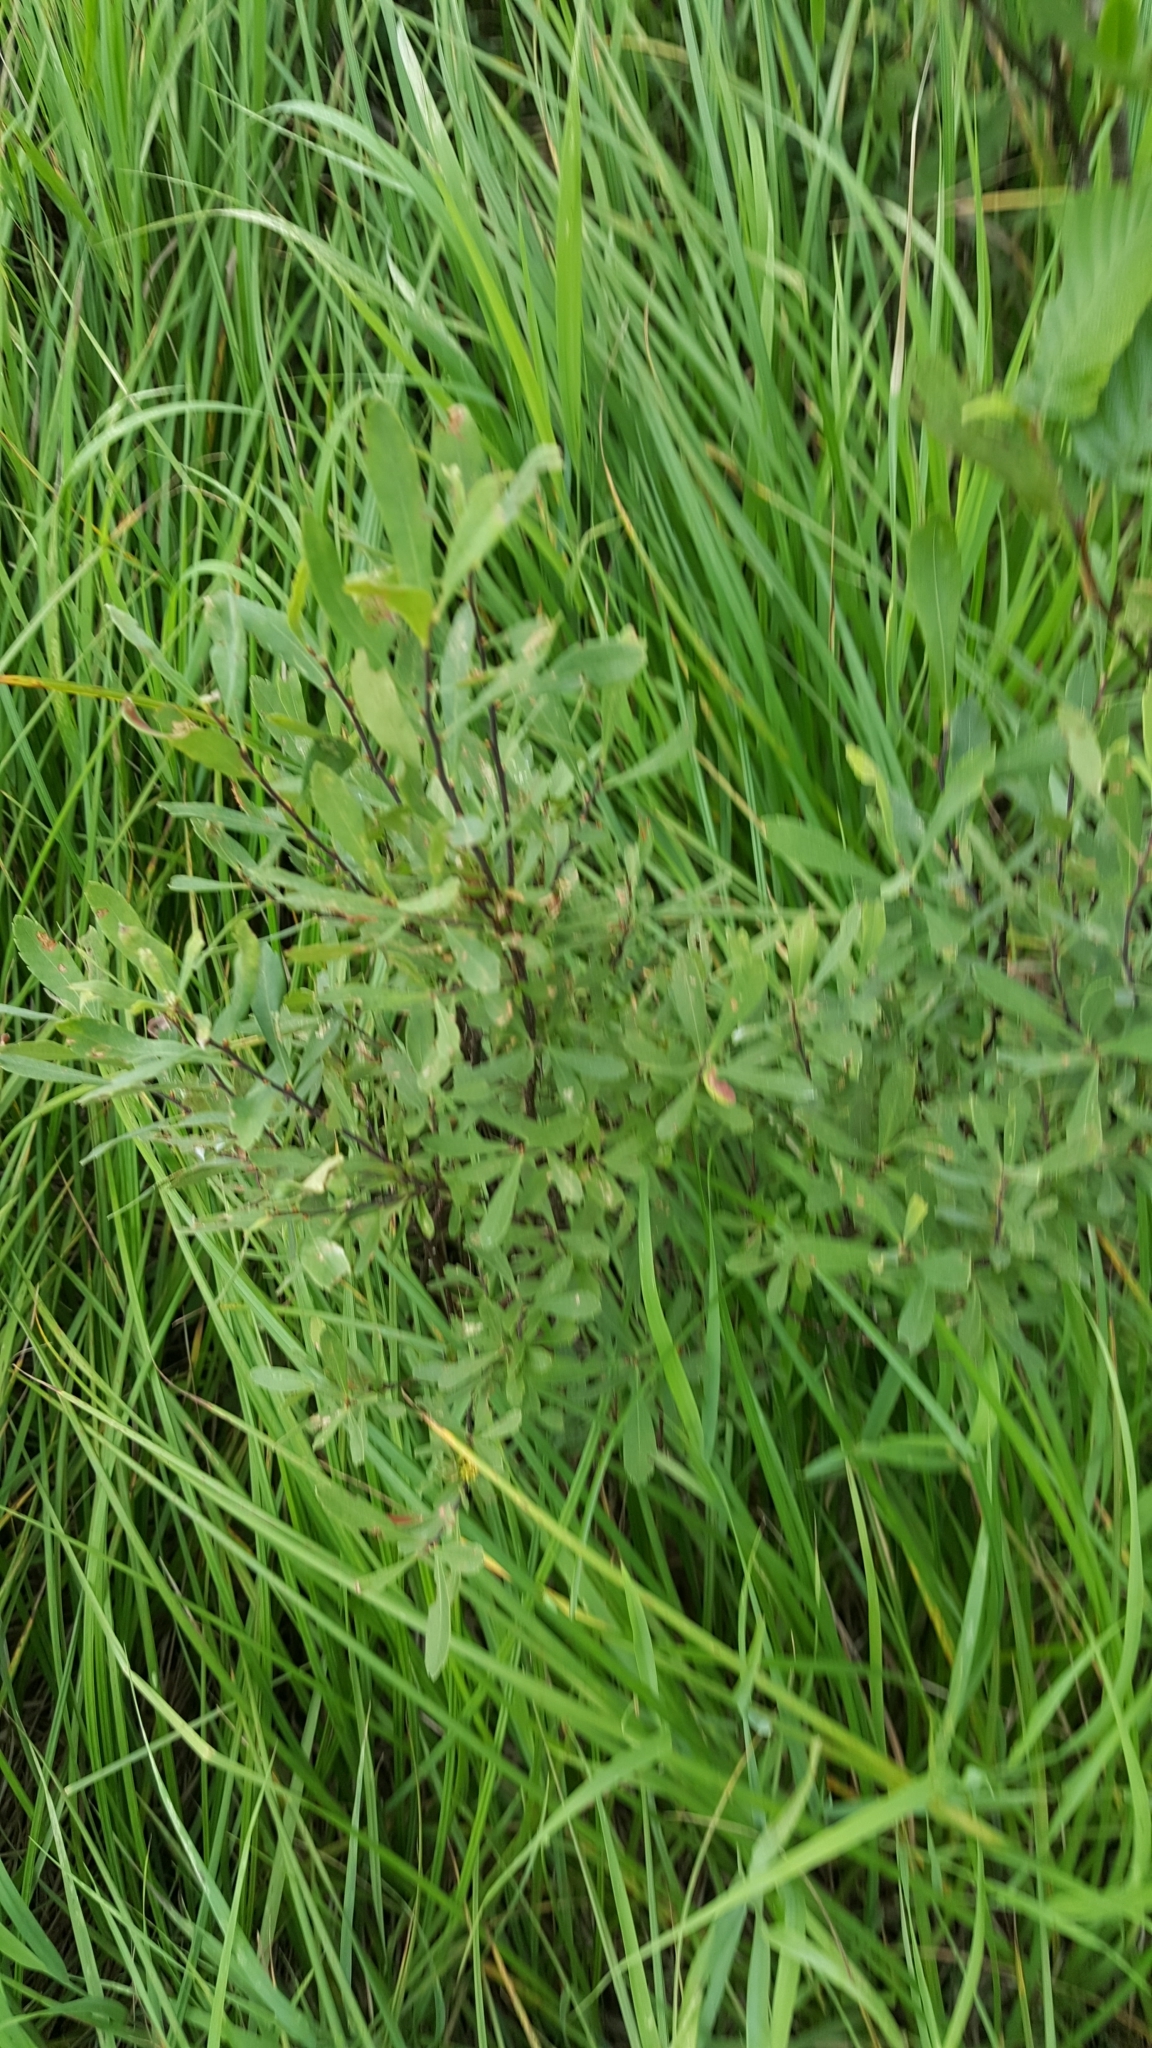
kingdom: Plantae
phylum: Tracheophyta
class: Magnoliopsida
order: Fagales
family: Myricaceae
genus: Myrica
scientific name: Myrica gale
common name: Sweet gale
